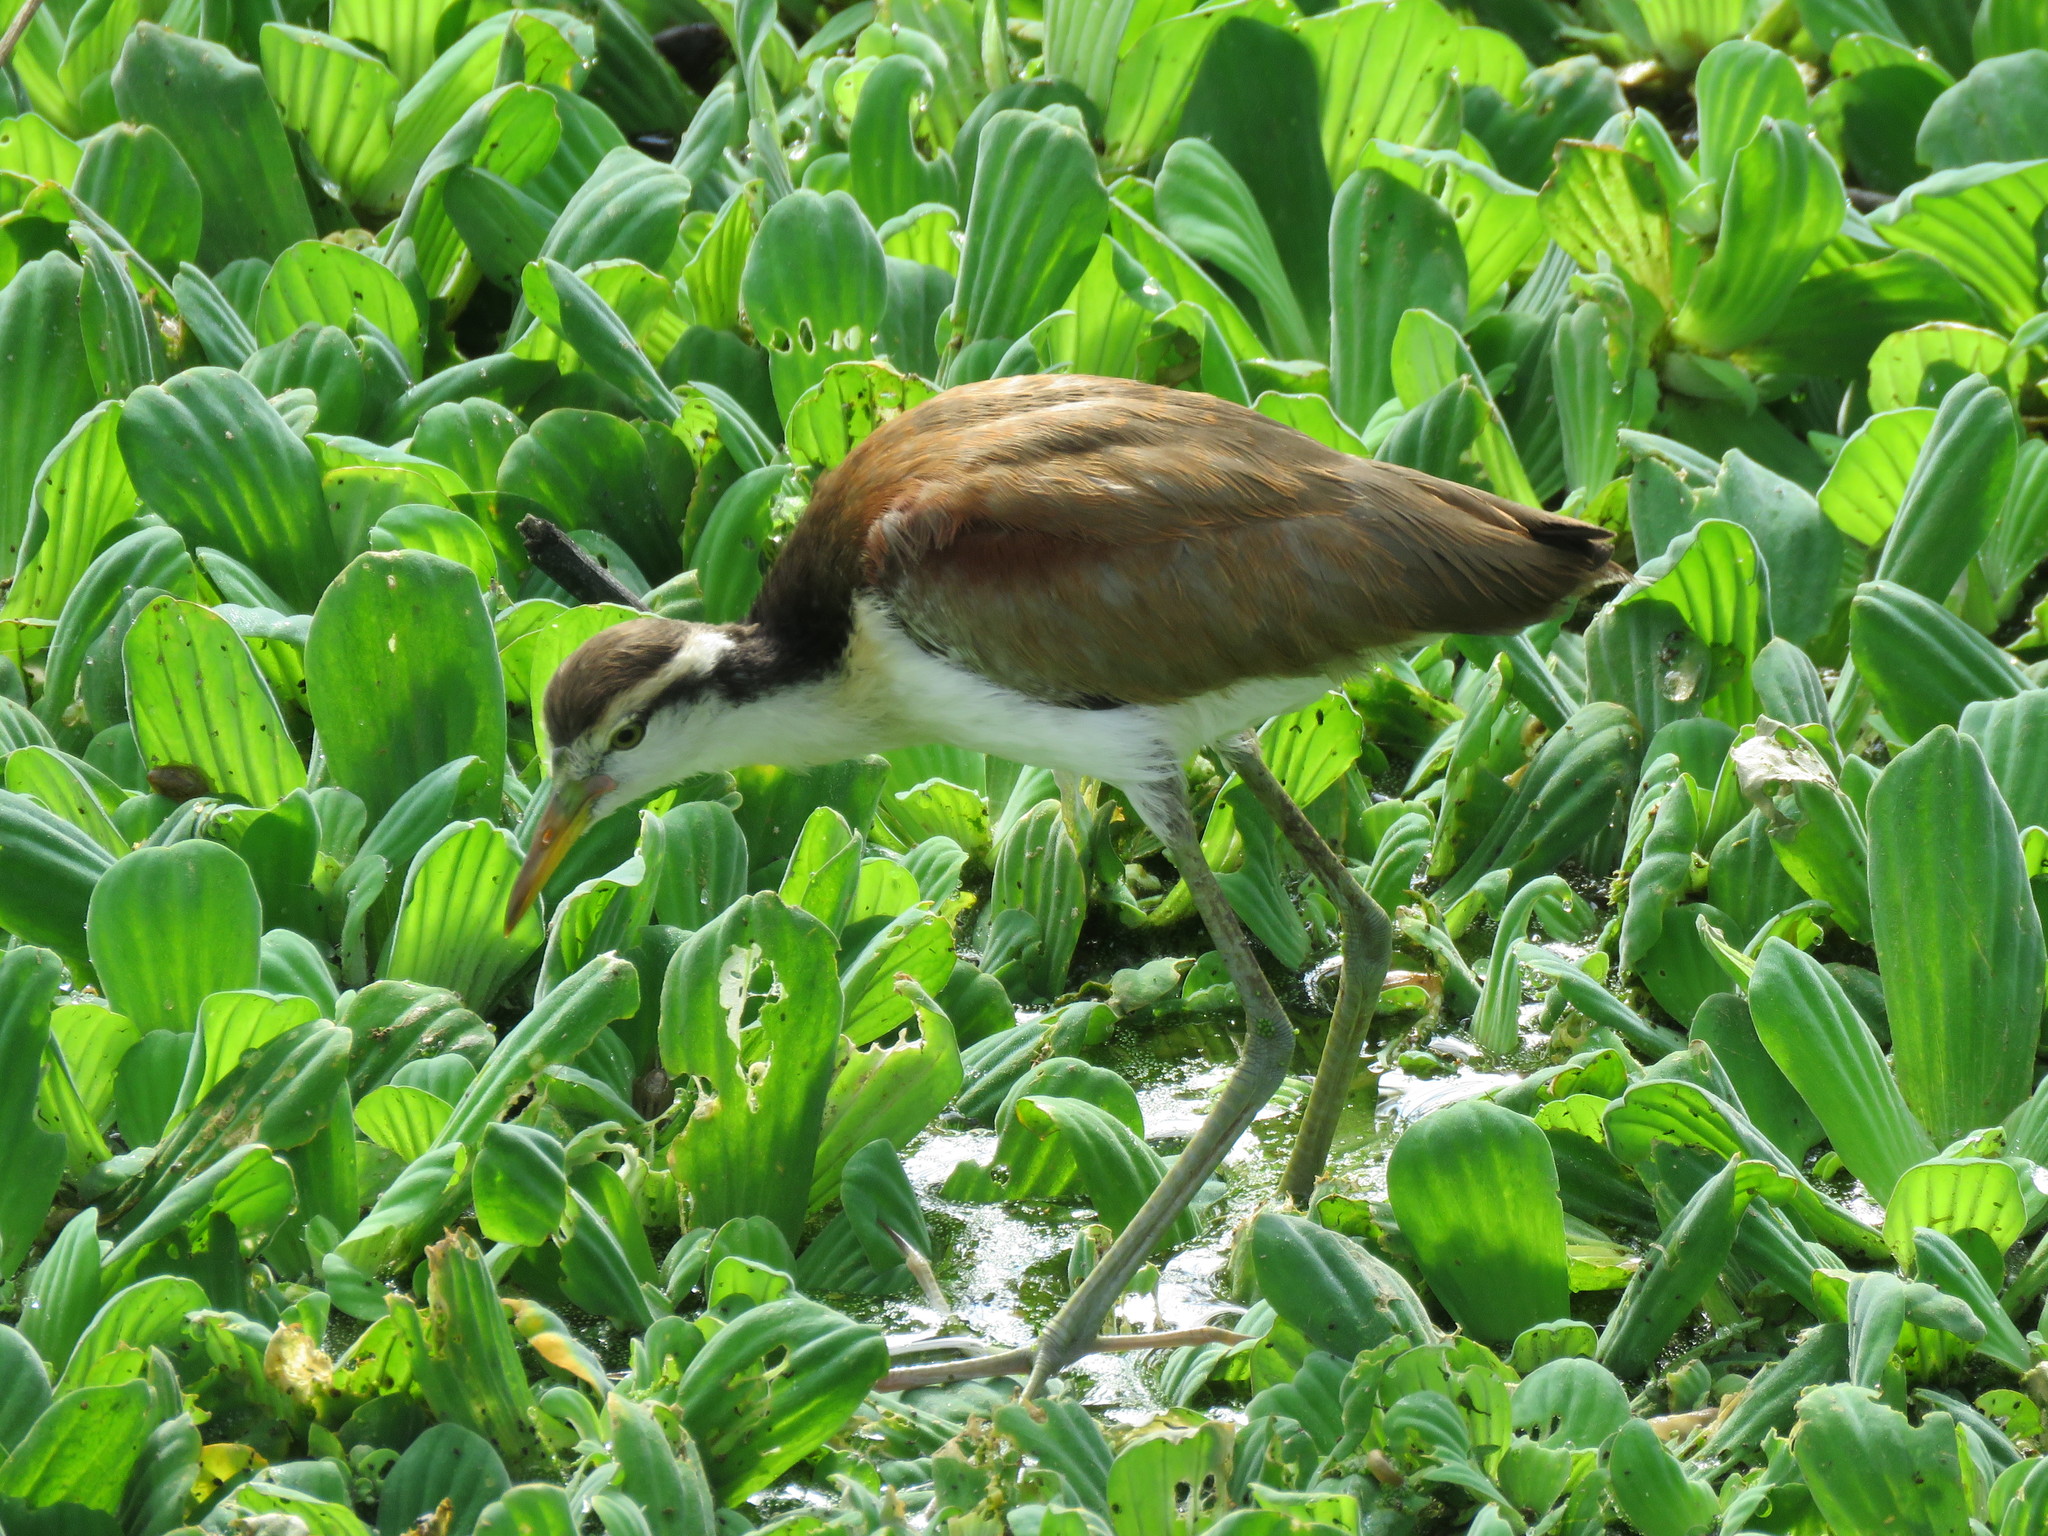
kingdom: Animalia
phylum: Chordata
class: Aves
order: Charadriiformes
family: Jacanidae
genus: Jacana
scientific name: Jacana jacana
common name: Wattled jacana
